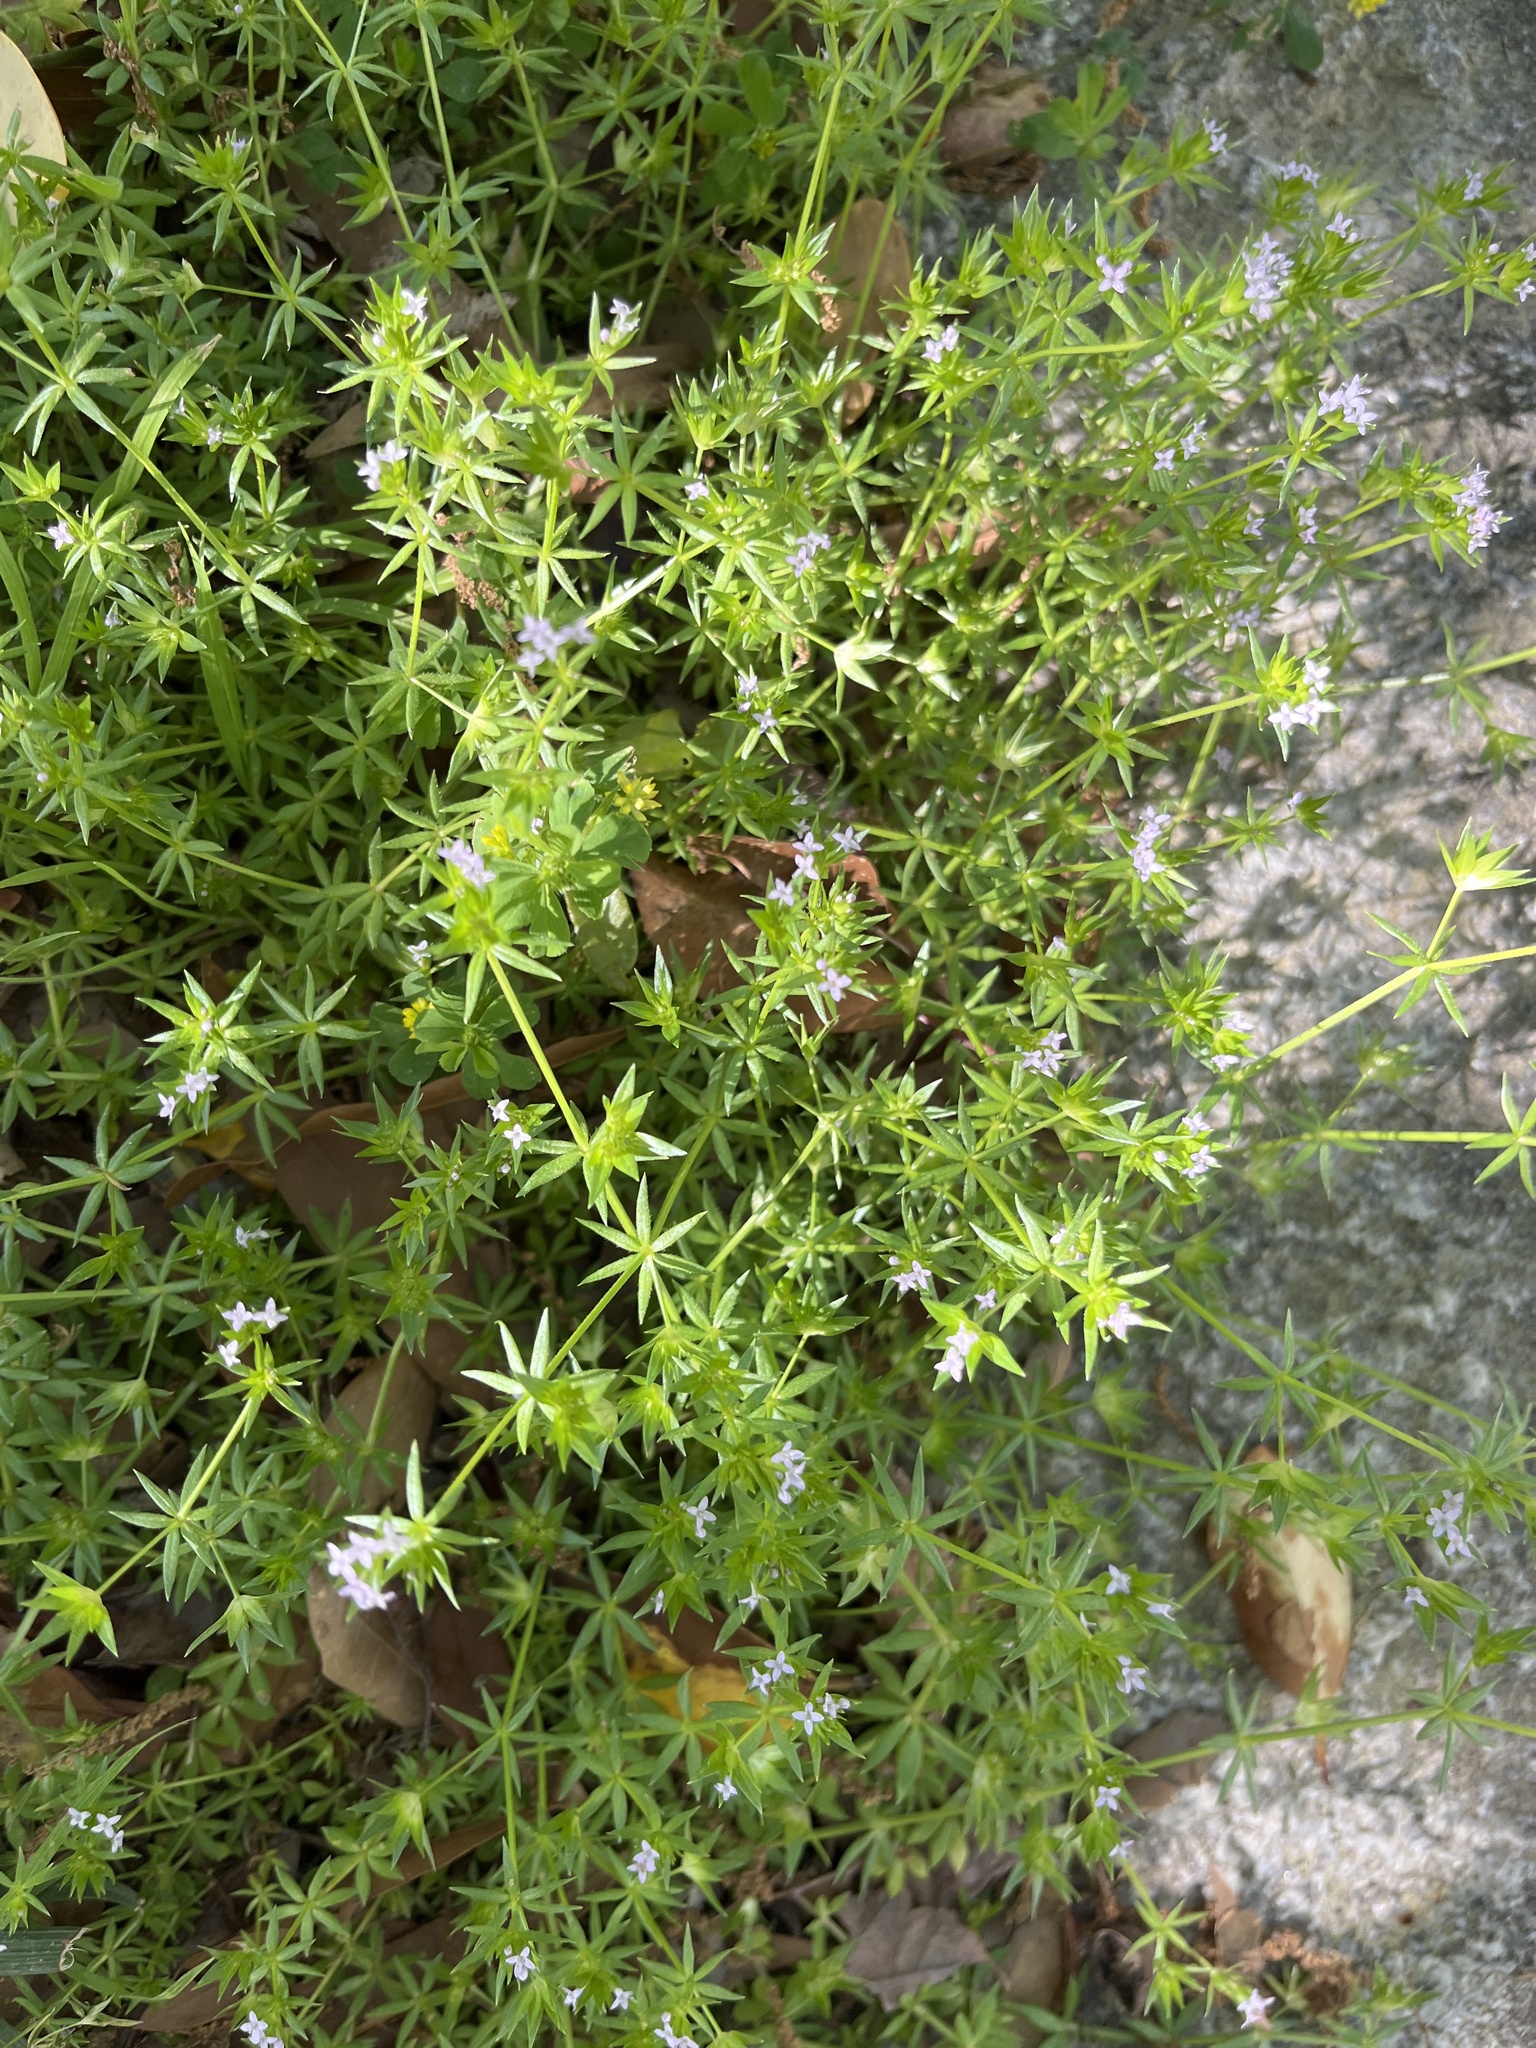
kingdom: Plantae
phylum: Tracheophyta
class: Magnoliopsida
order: Gentianales
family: Rubiaceae
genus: Sherardia
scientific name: Sherardia arvensis
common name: Field madder
